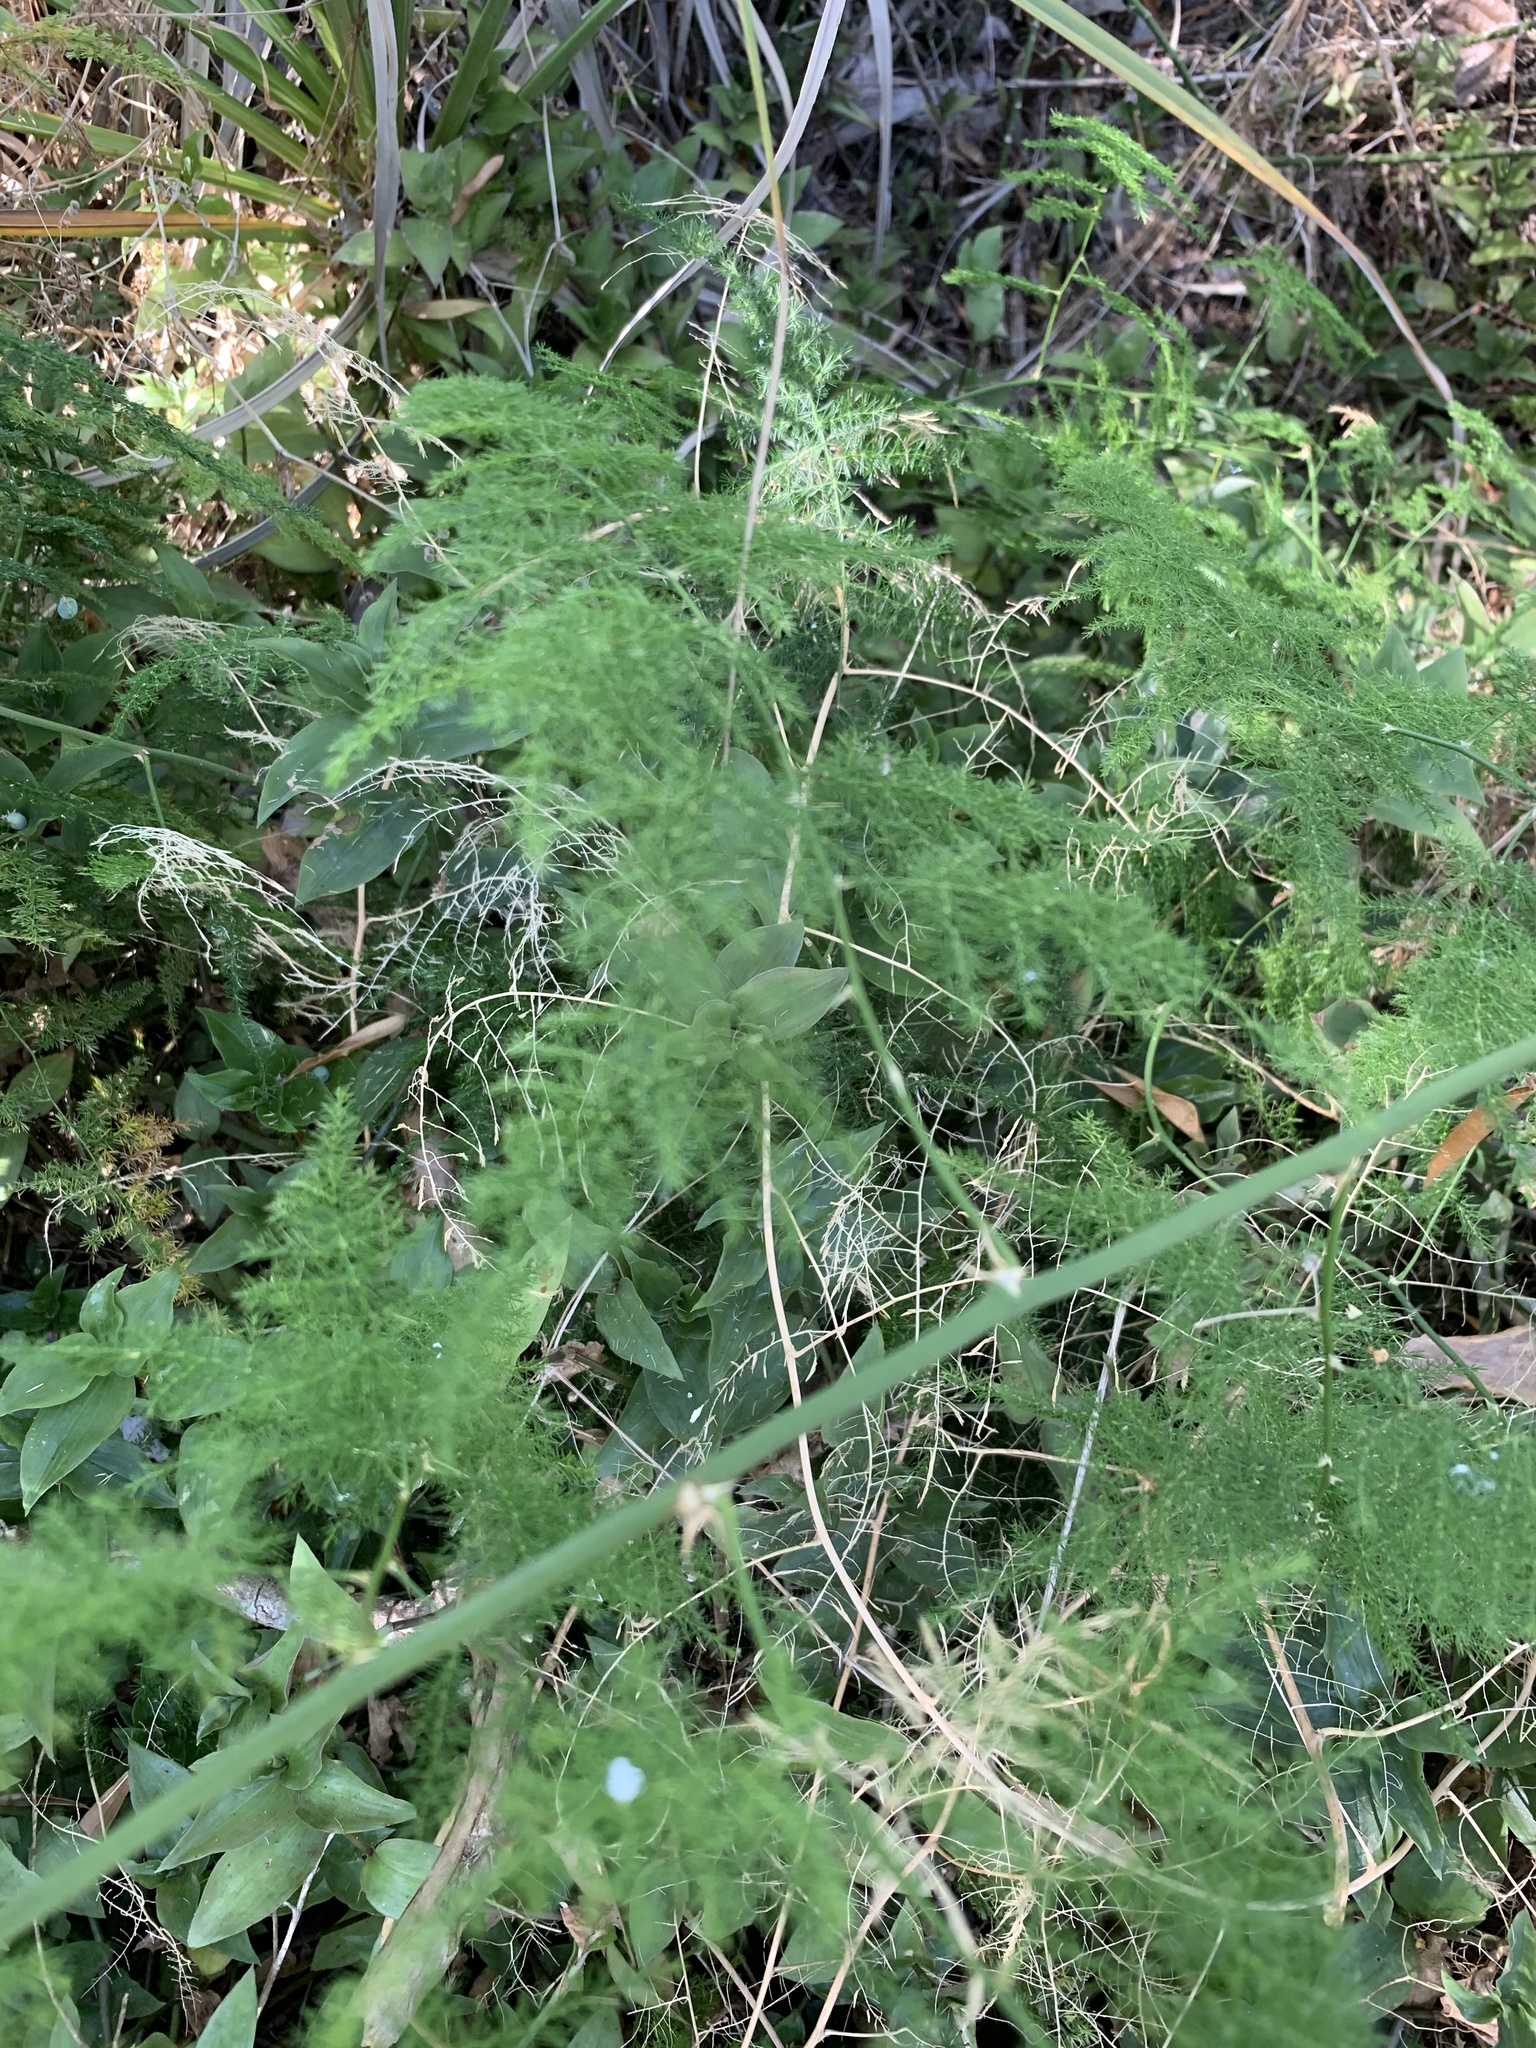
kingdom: Plantae
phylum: Tracheophyta
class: Liliopsida
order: Asparagales
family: Asparagaceae
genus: Asparagus
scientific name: Asparagus setaceus
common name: Common asparagus fern
